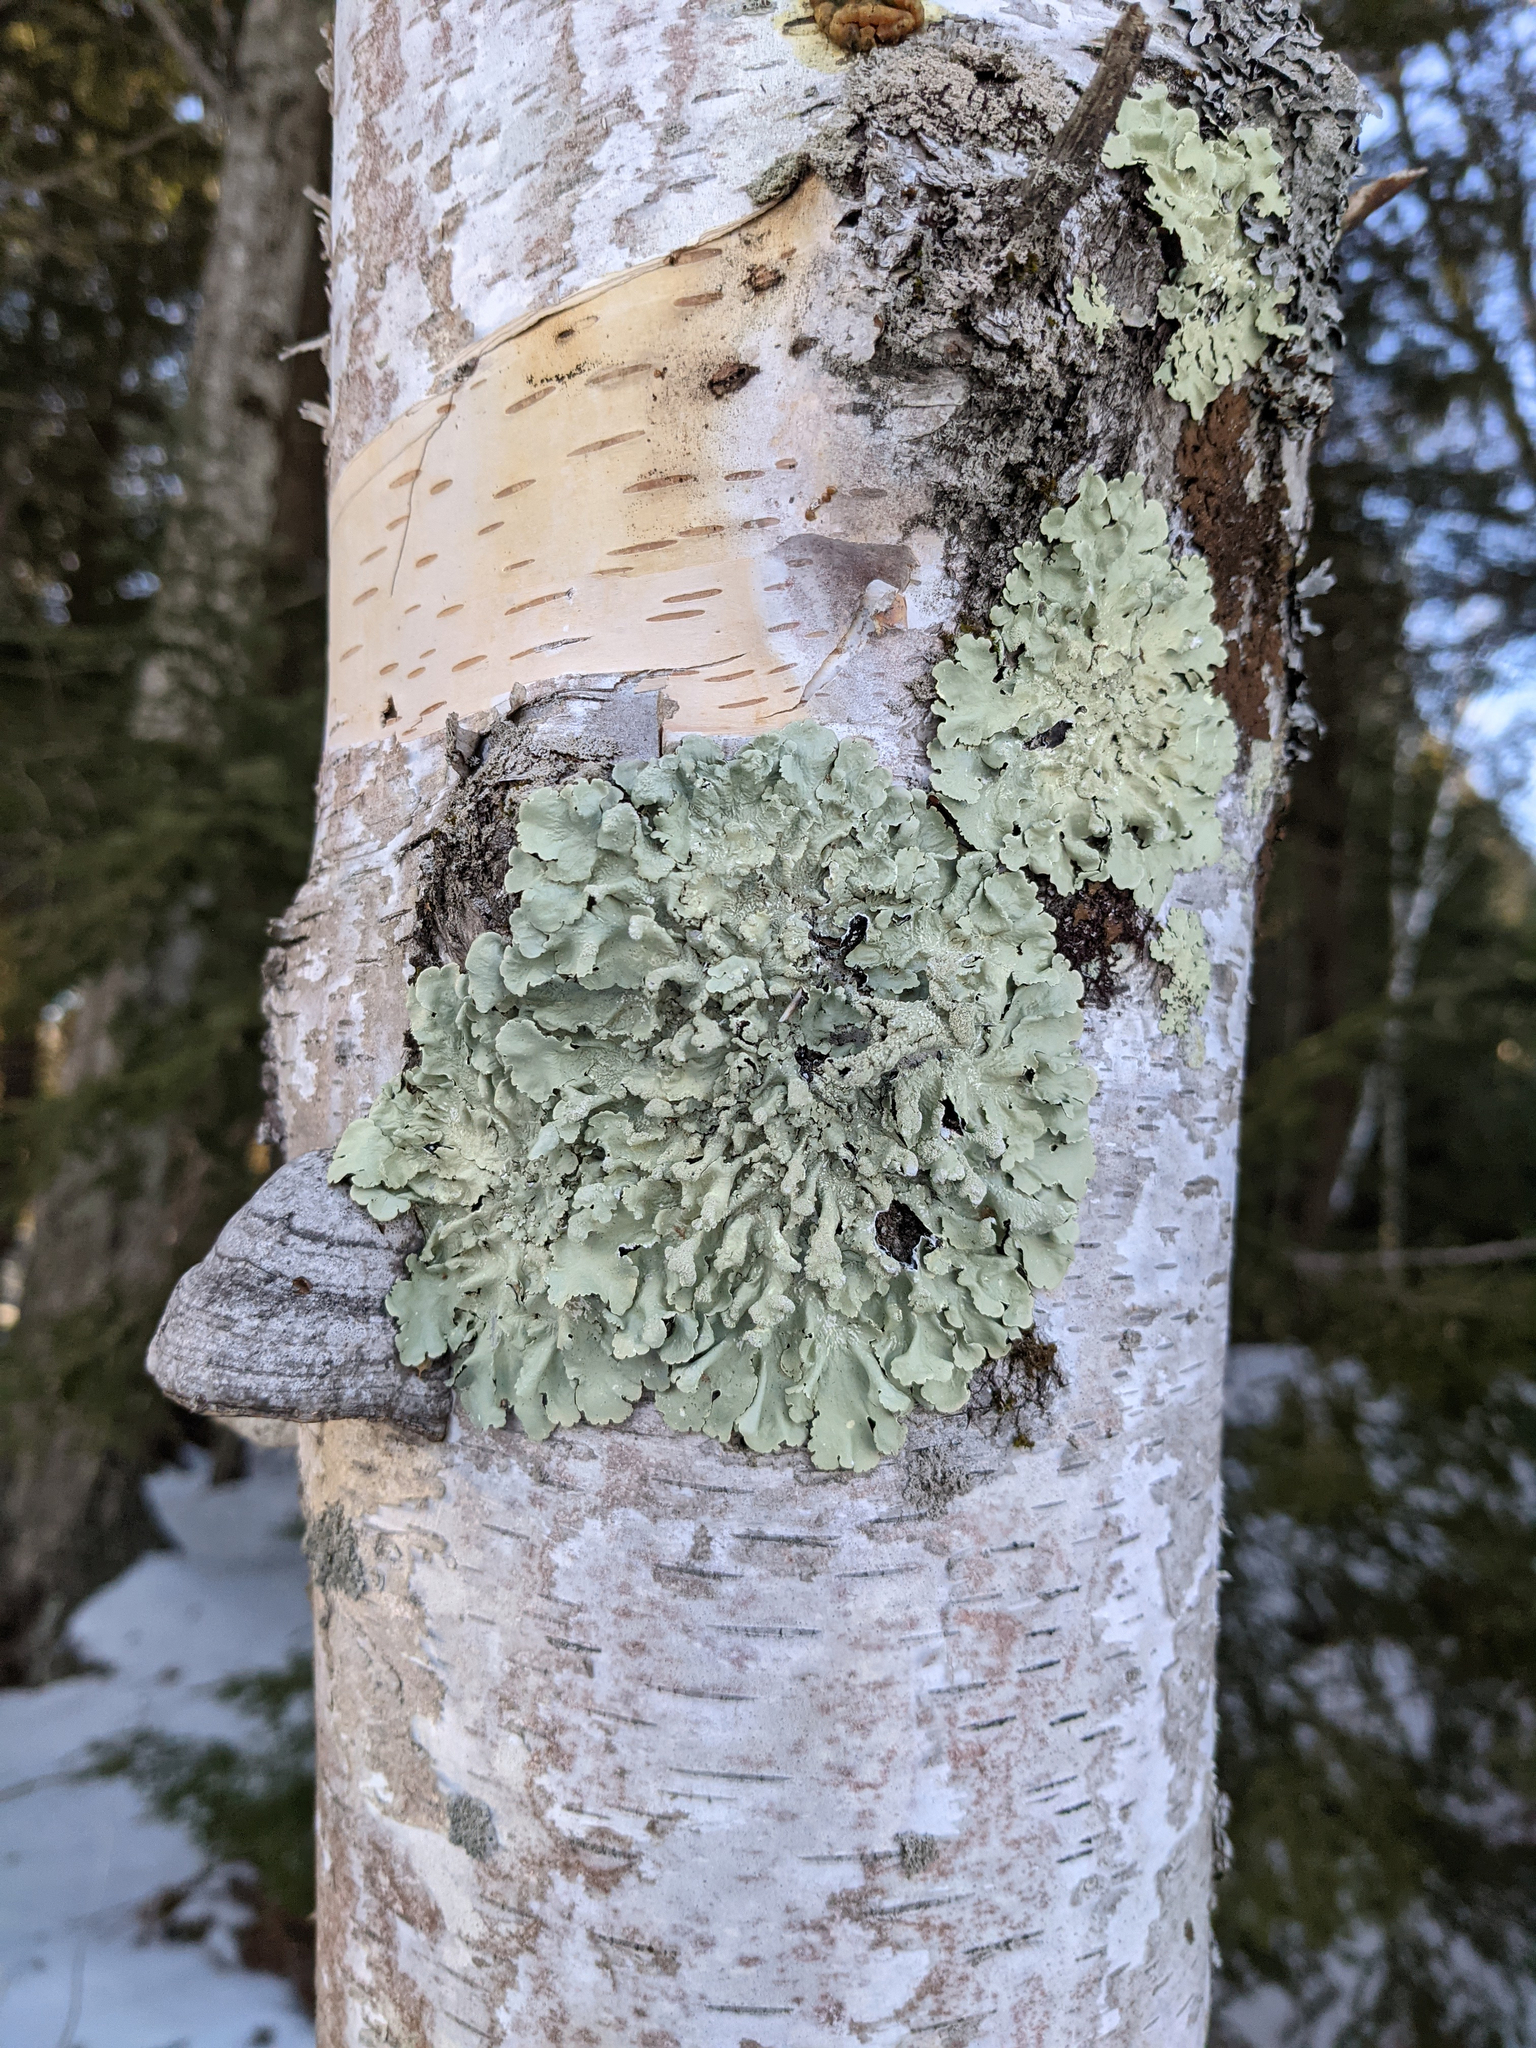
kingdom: Fungi
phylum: Ascomycota
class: Lecanoromycetes
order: Lecanorales
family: Parmeliaceae
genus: Flavoparmelia
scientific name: Flavoparmelia caperata
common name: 40-mile per hour lichen
